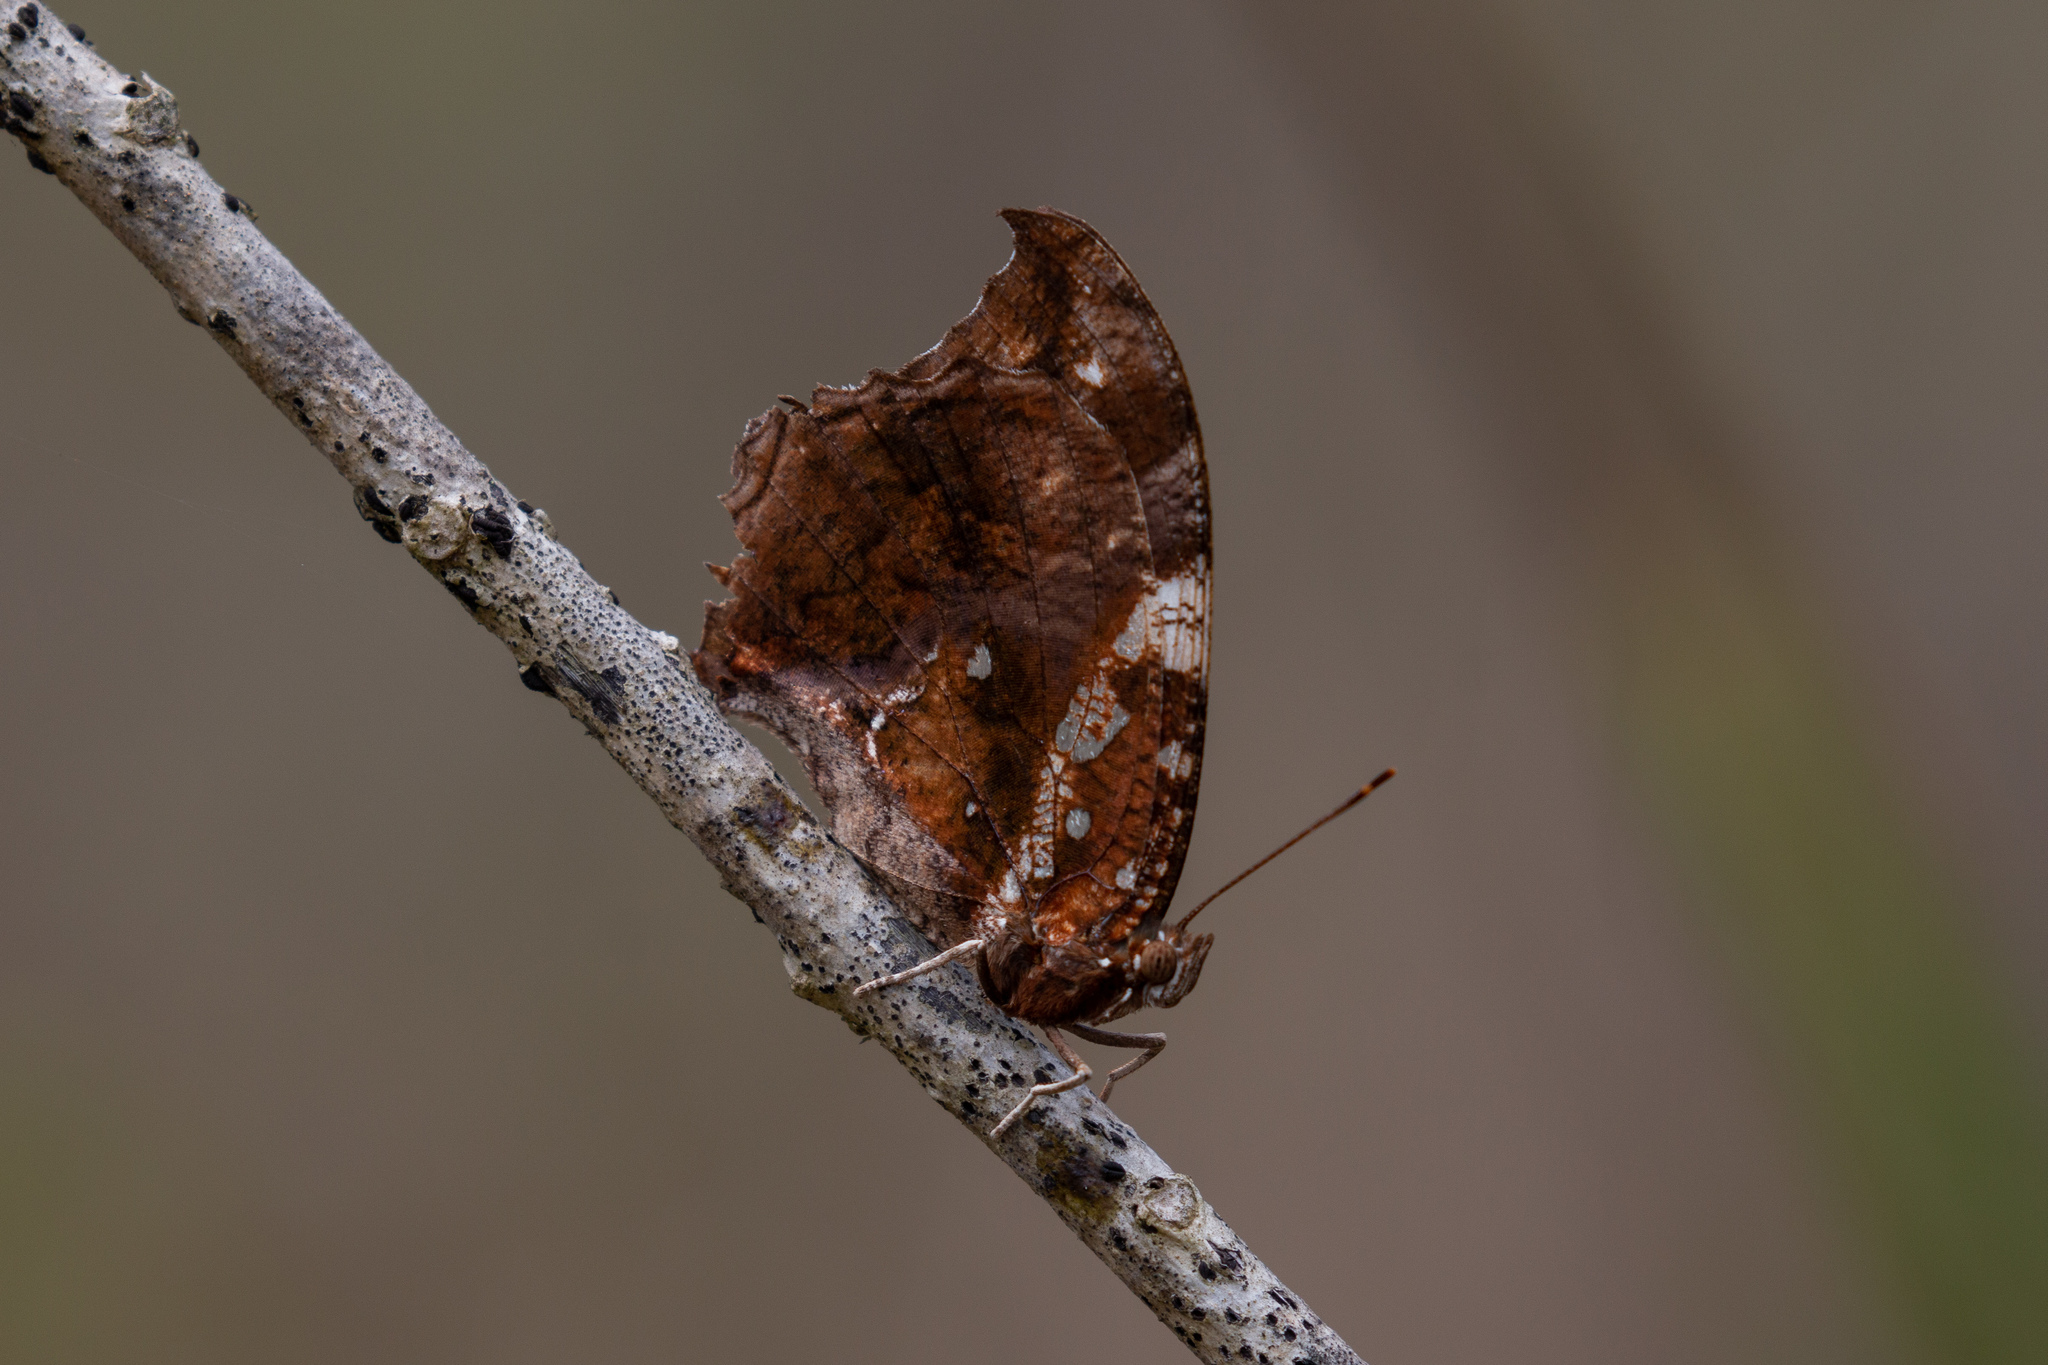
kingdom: Animalia
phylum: Arthropoda
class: Insecta
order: Lepidoptera
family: Nymphalidae
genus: Hypna
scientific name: Hypna clytemnestra
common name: Silver-studded leafwing
